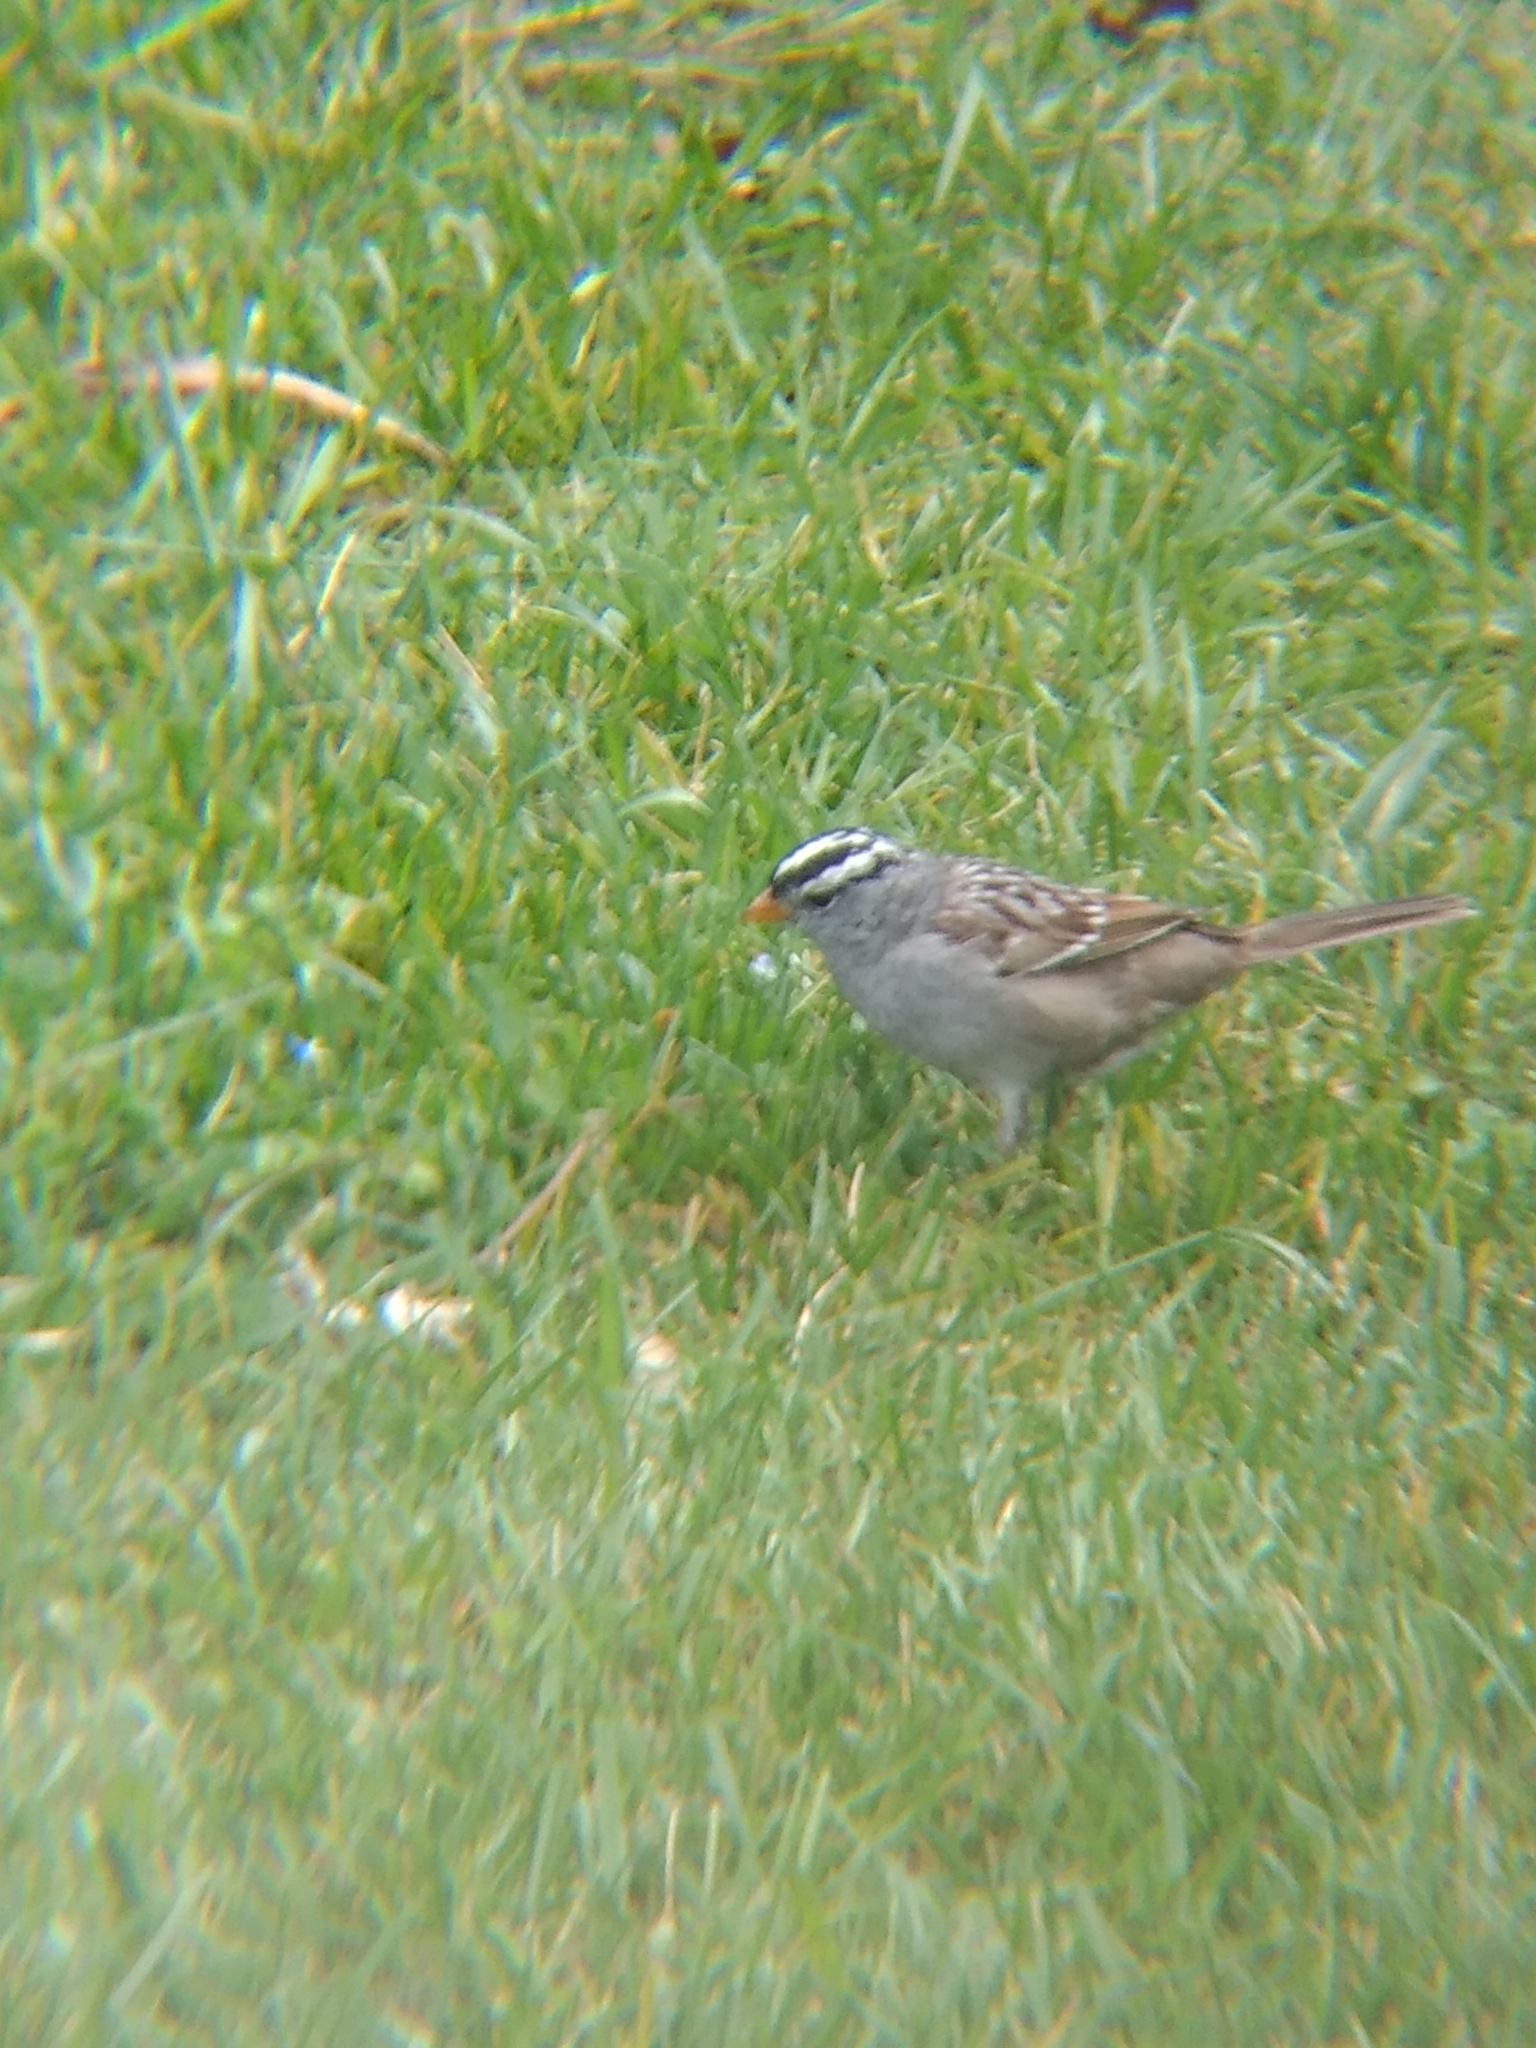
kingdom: Animalia
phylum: Chordata
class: Aves
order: Passeriformes
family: Passerellidae
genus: Zonotrichia
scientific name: Zonotrichia leucophrys
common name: White-crowned sparrow
